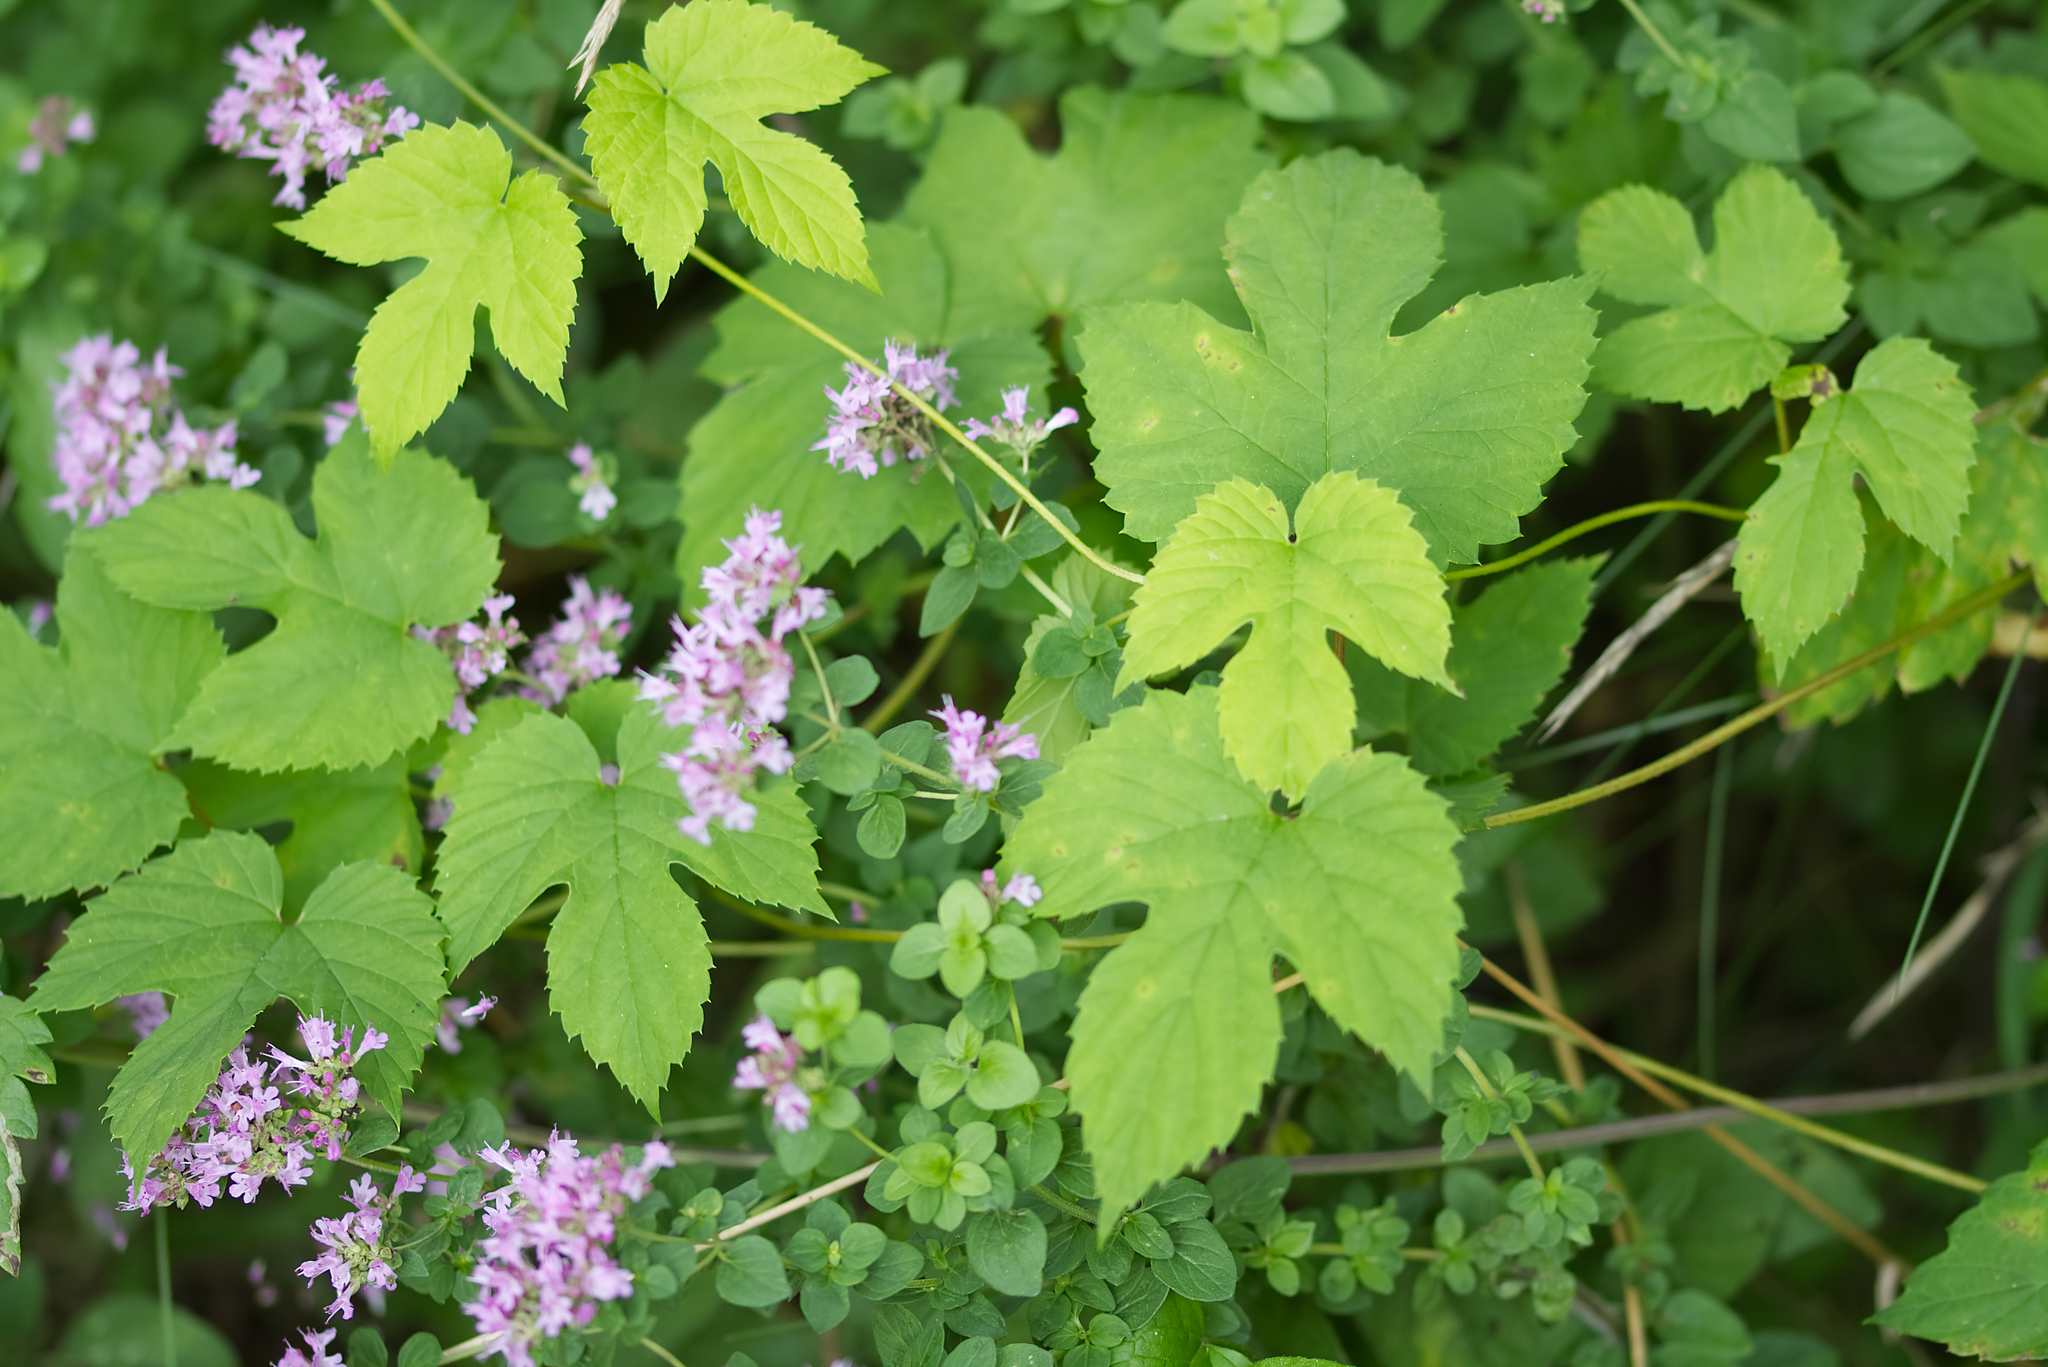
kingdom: Plantae
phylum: Tracheophyta
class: Magnoliopsida
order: Rosales
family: Cannabaceae
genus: Humulus
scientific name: Humulus lupulus
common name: Hop
